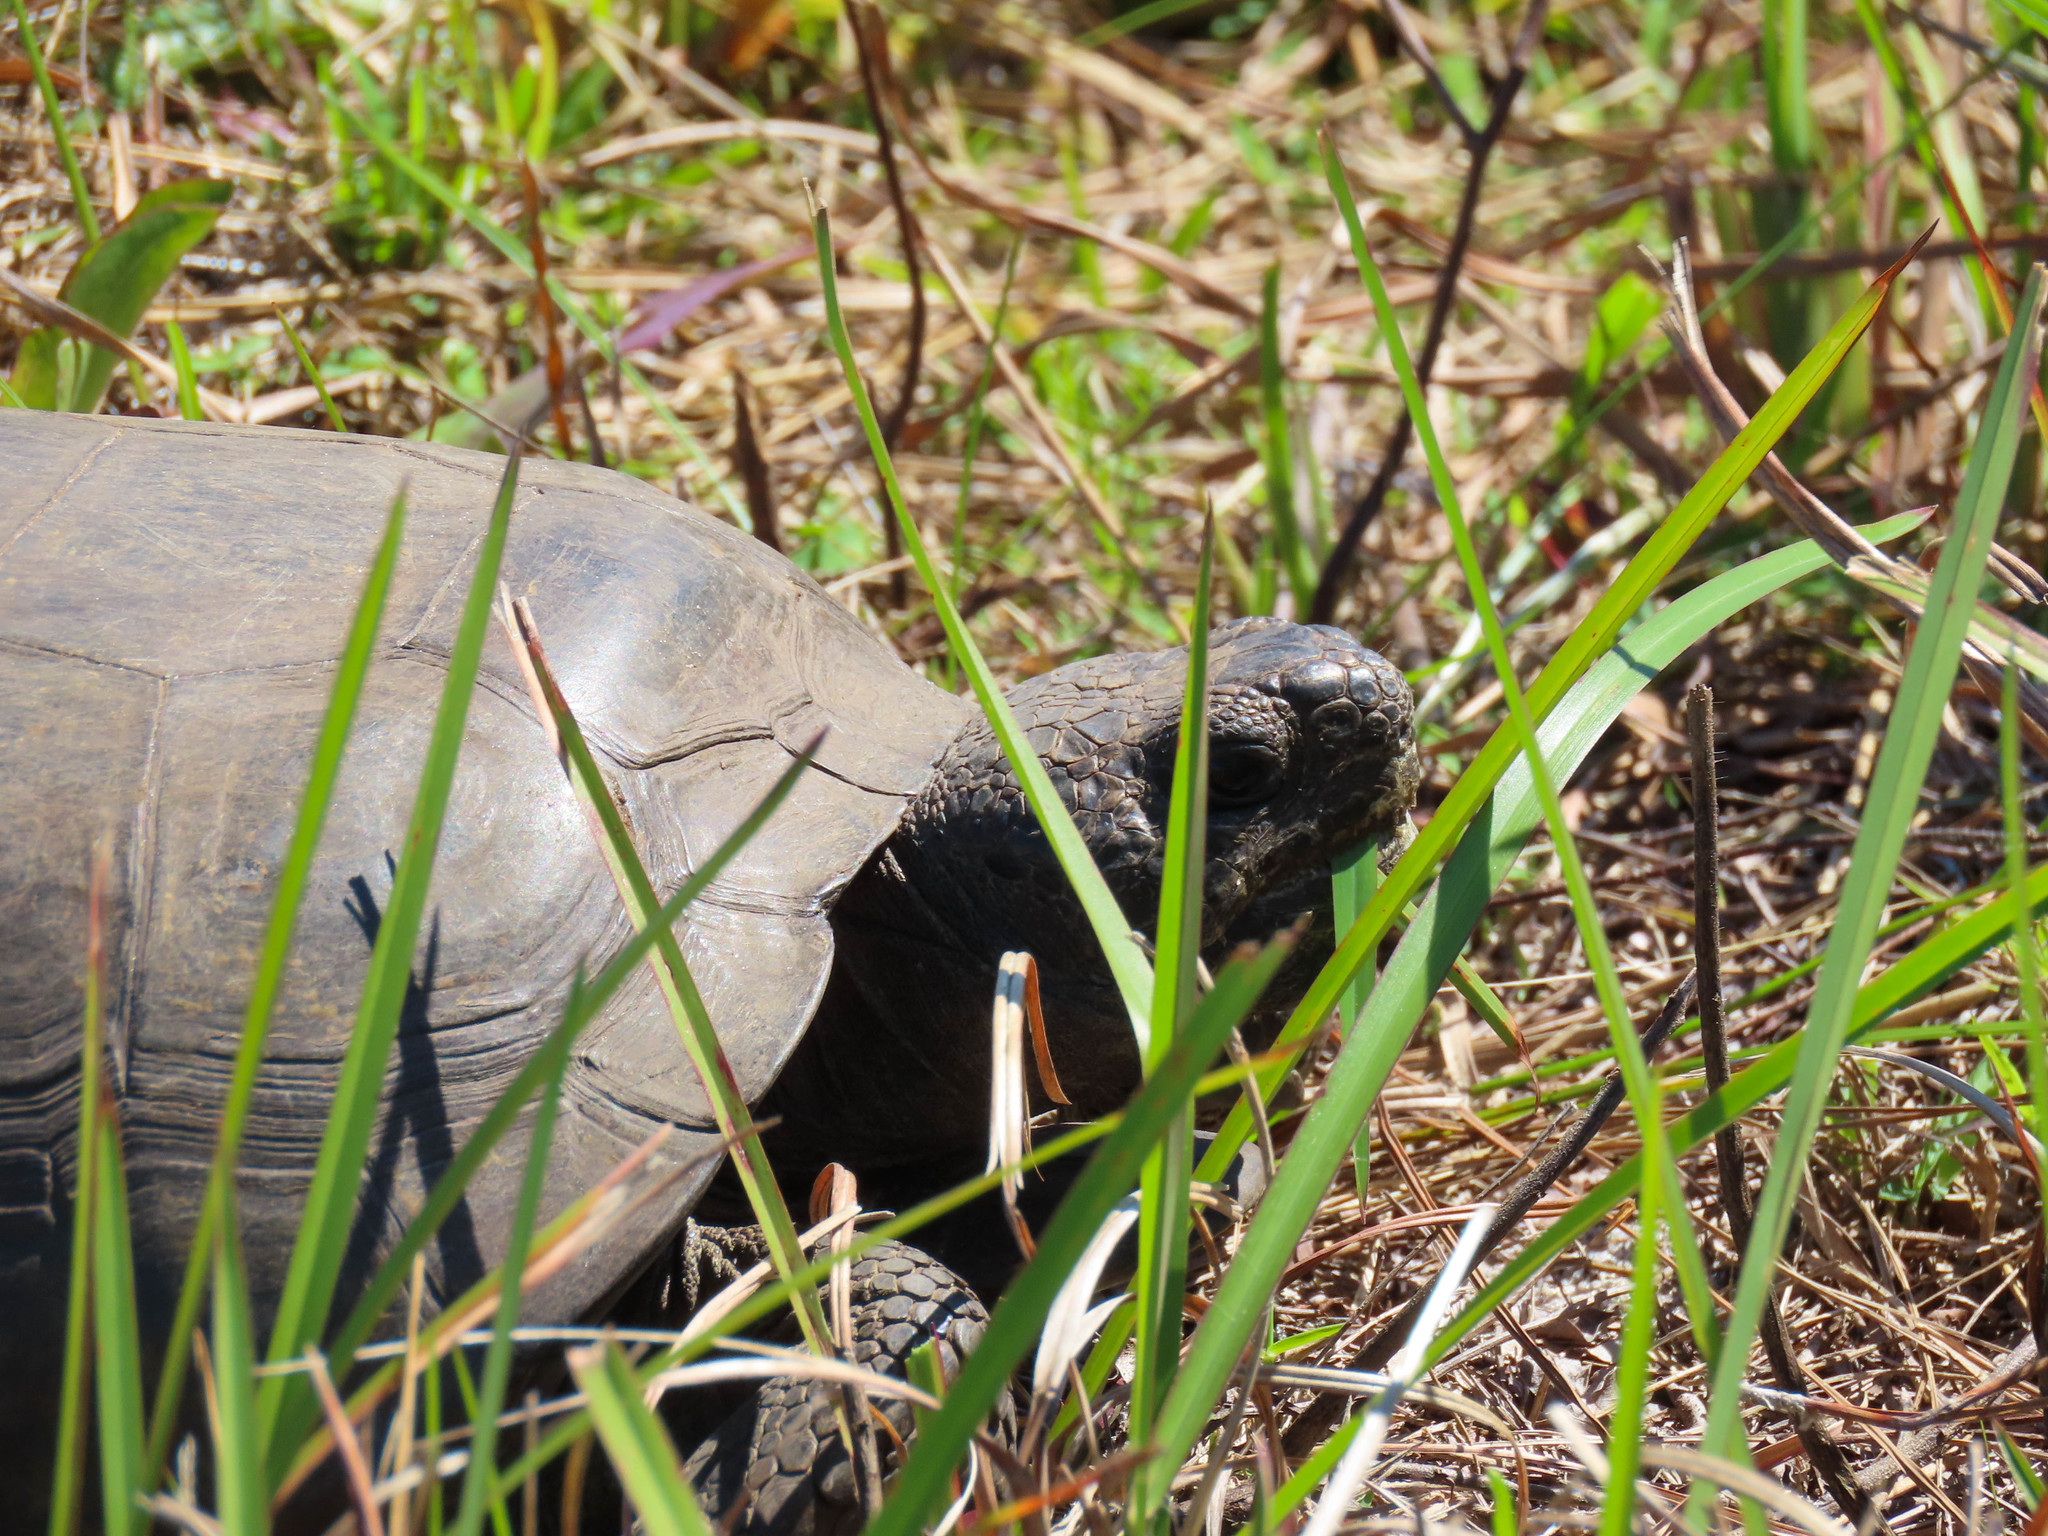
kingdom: Animalia
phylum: Chordata
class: Testudines
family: Testudinidae
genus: Gopherus
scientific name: Gopherus polyphemus
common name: Florida gopher tortoise
